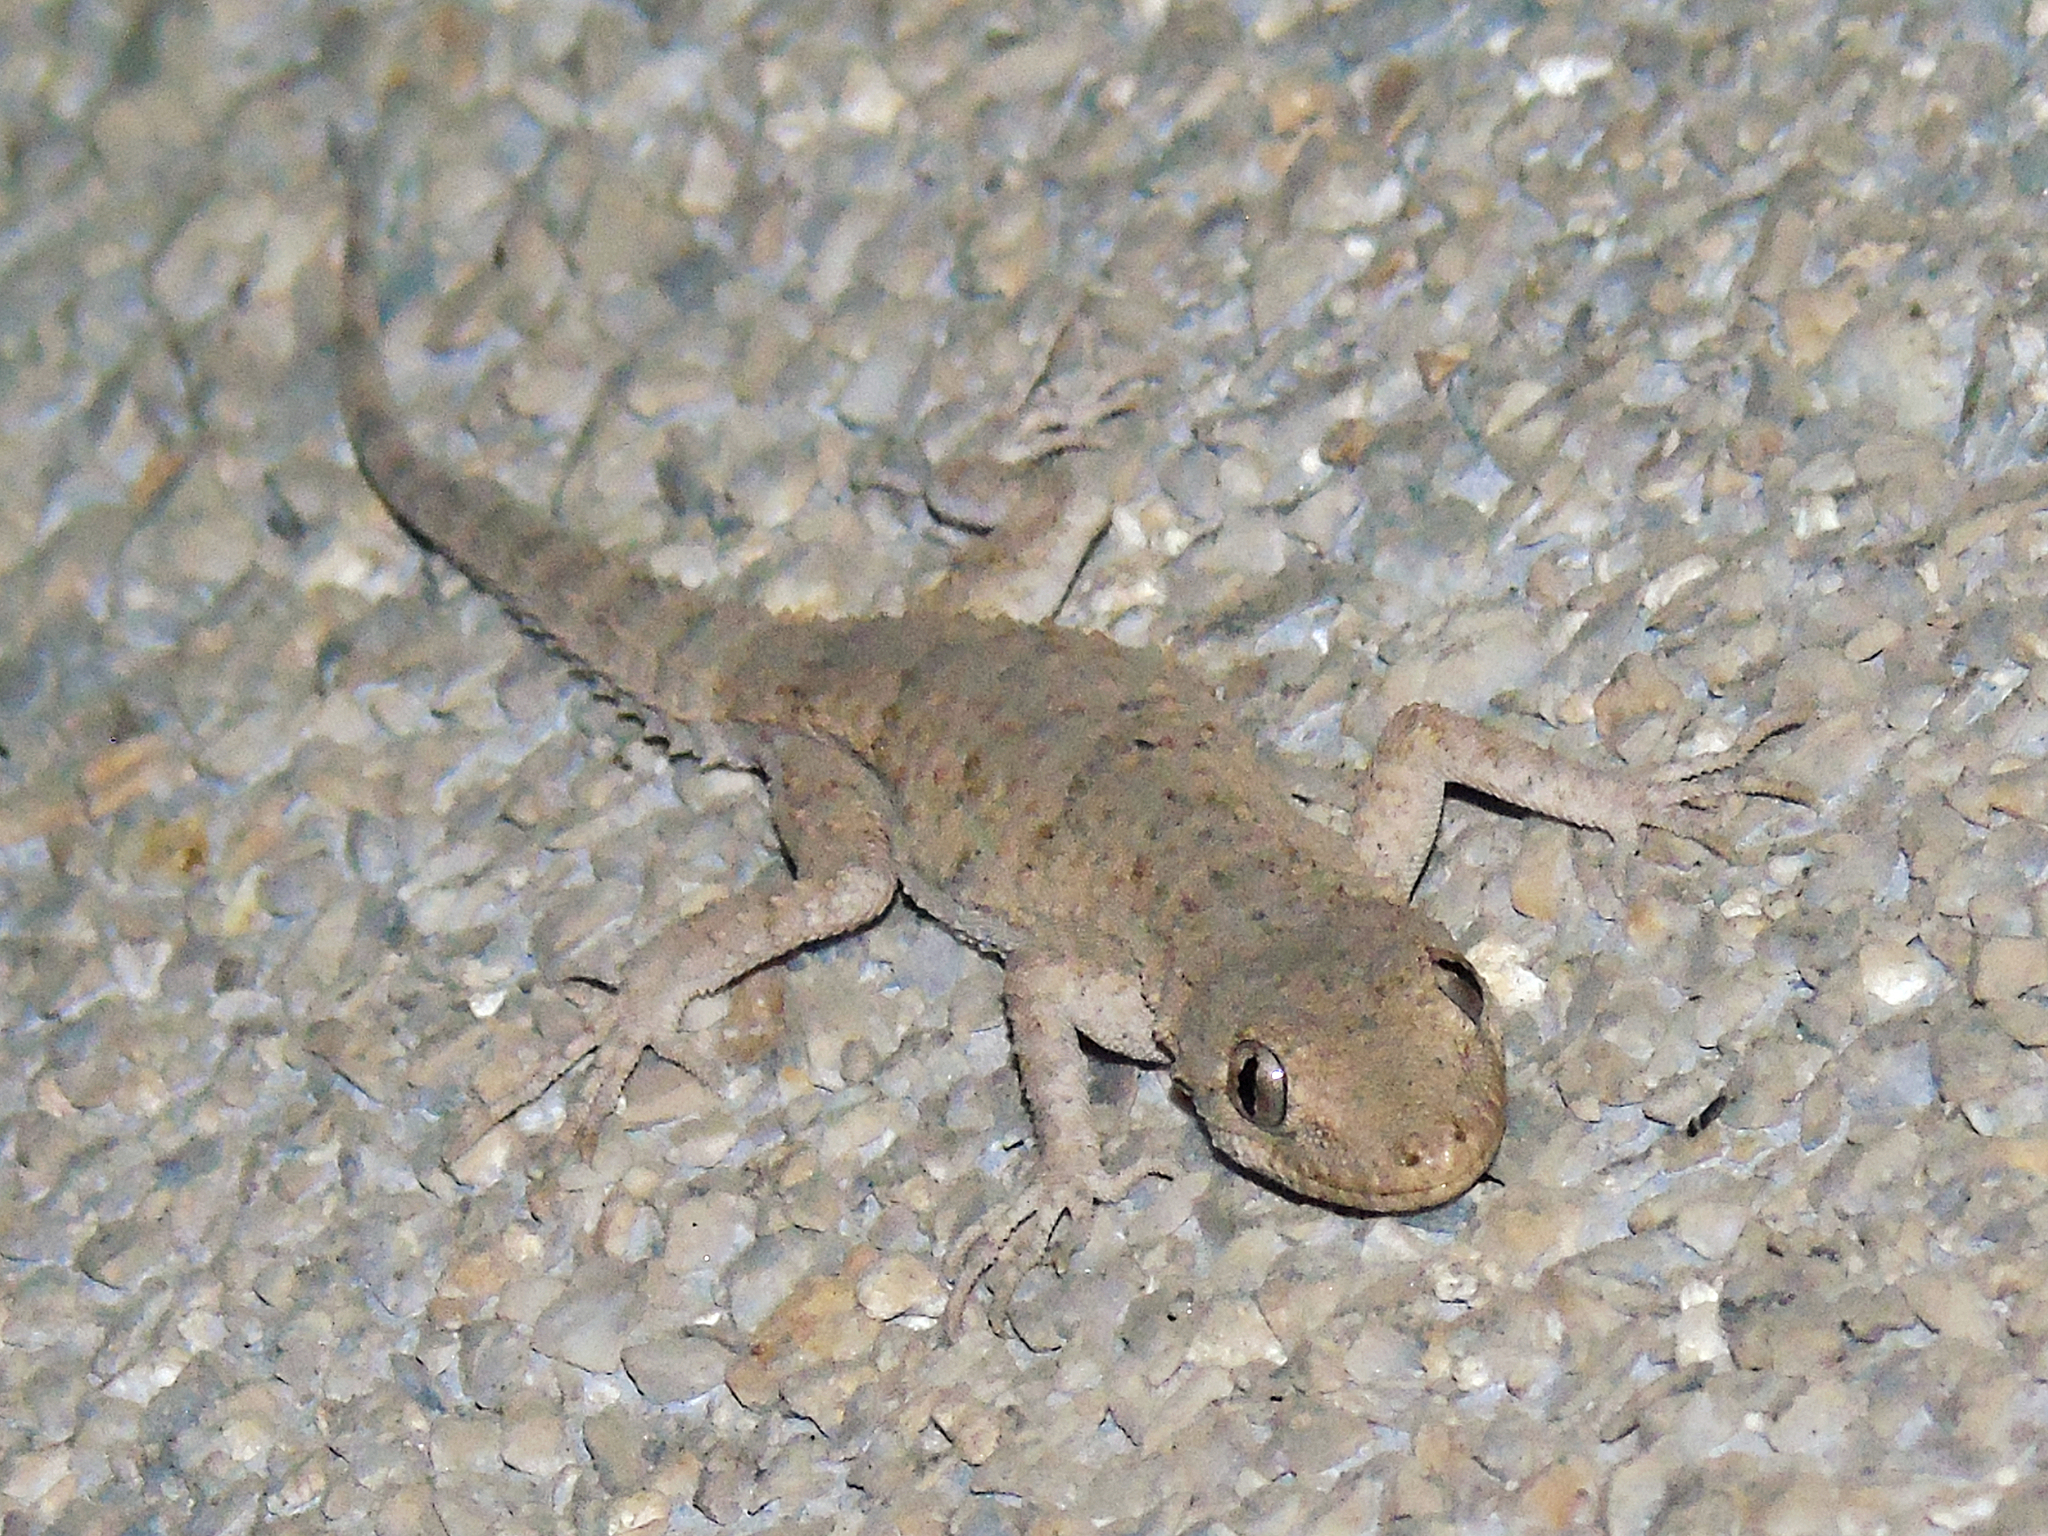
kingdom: Animalia
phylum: Chordata
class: Squamata
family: Gekkonidae
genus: Mediodactylus
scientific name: Mediodactylus russowii
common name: Grey thin-toed gecko
